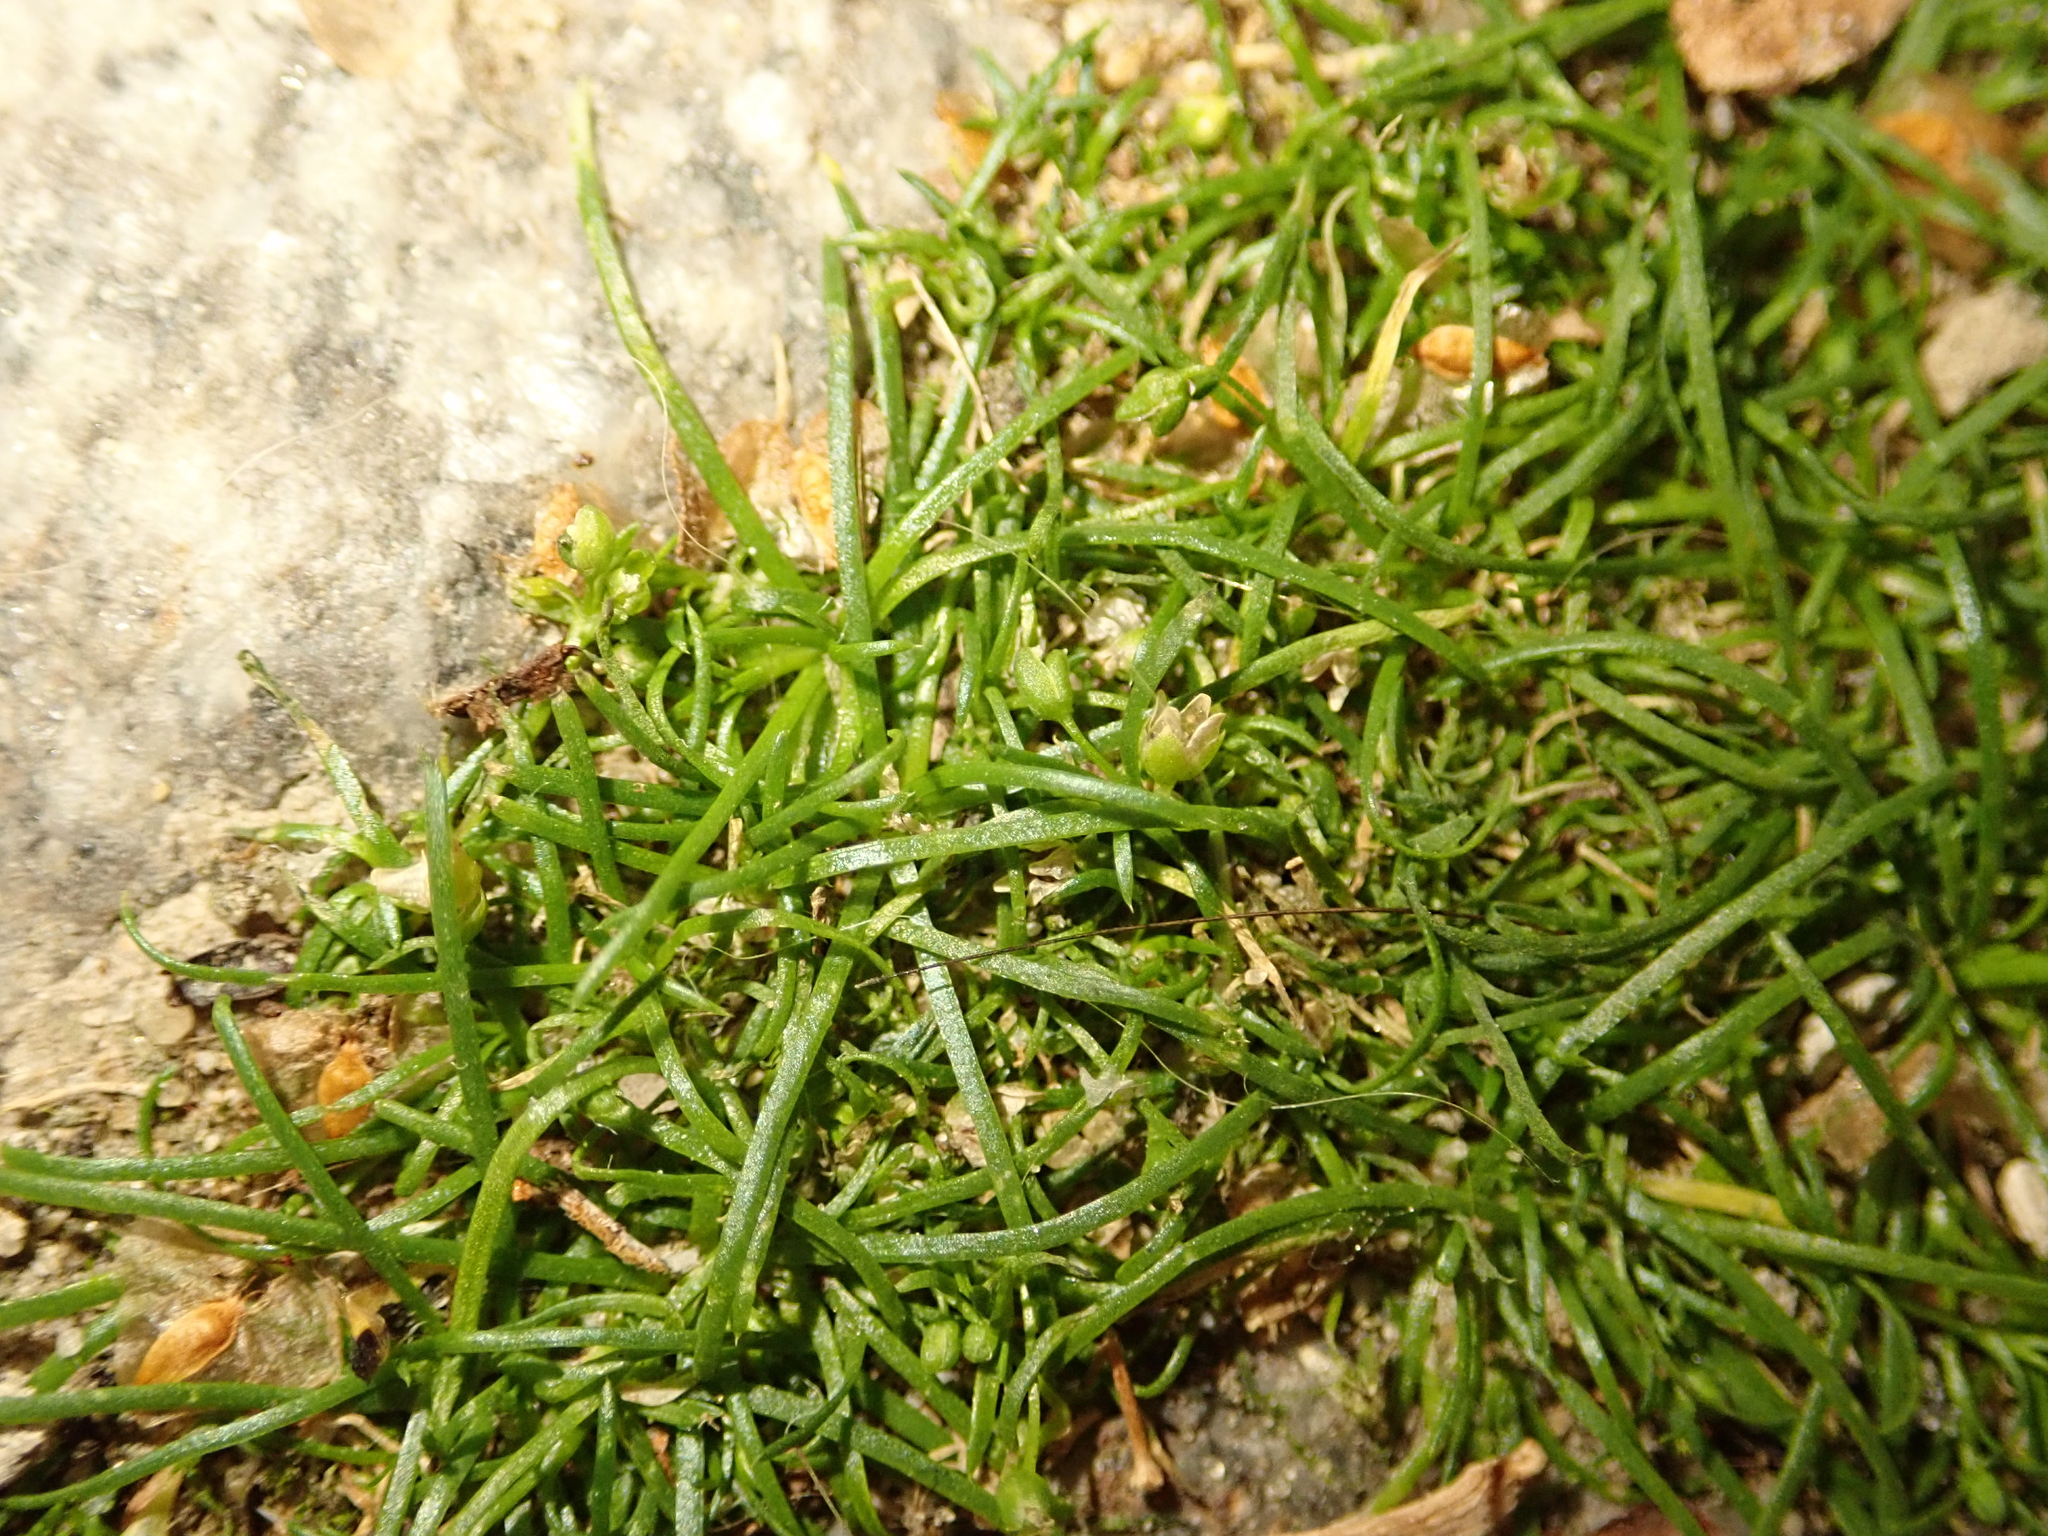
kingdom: Plantae
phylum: Tracheophyta
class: Magnoliopsida
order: Caryophyllales
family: Caryophyllaceae
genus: Sagina
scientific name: Sagina procumbens
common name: Procumbent pearlwort
